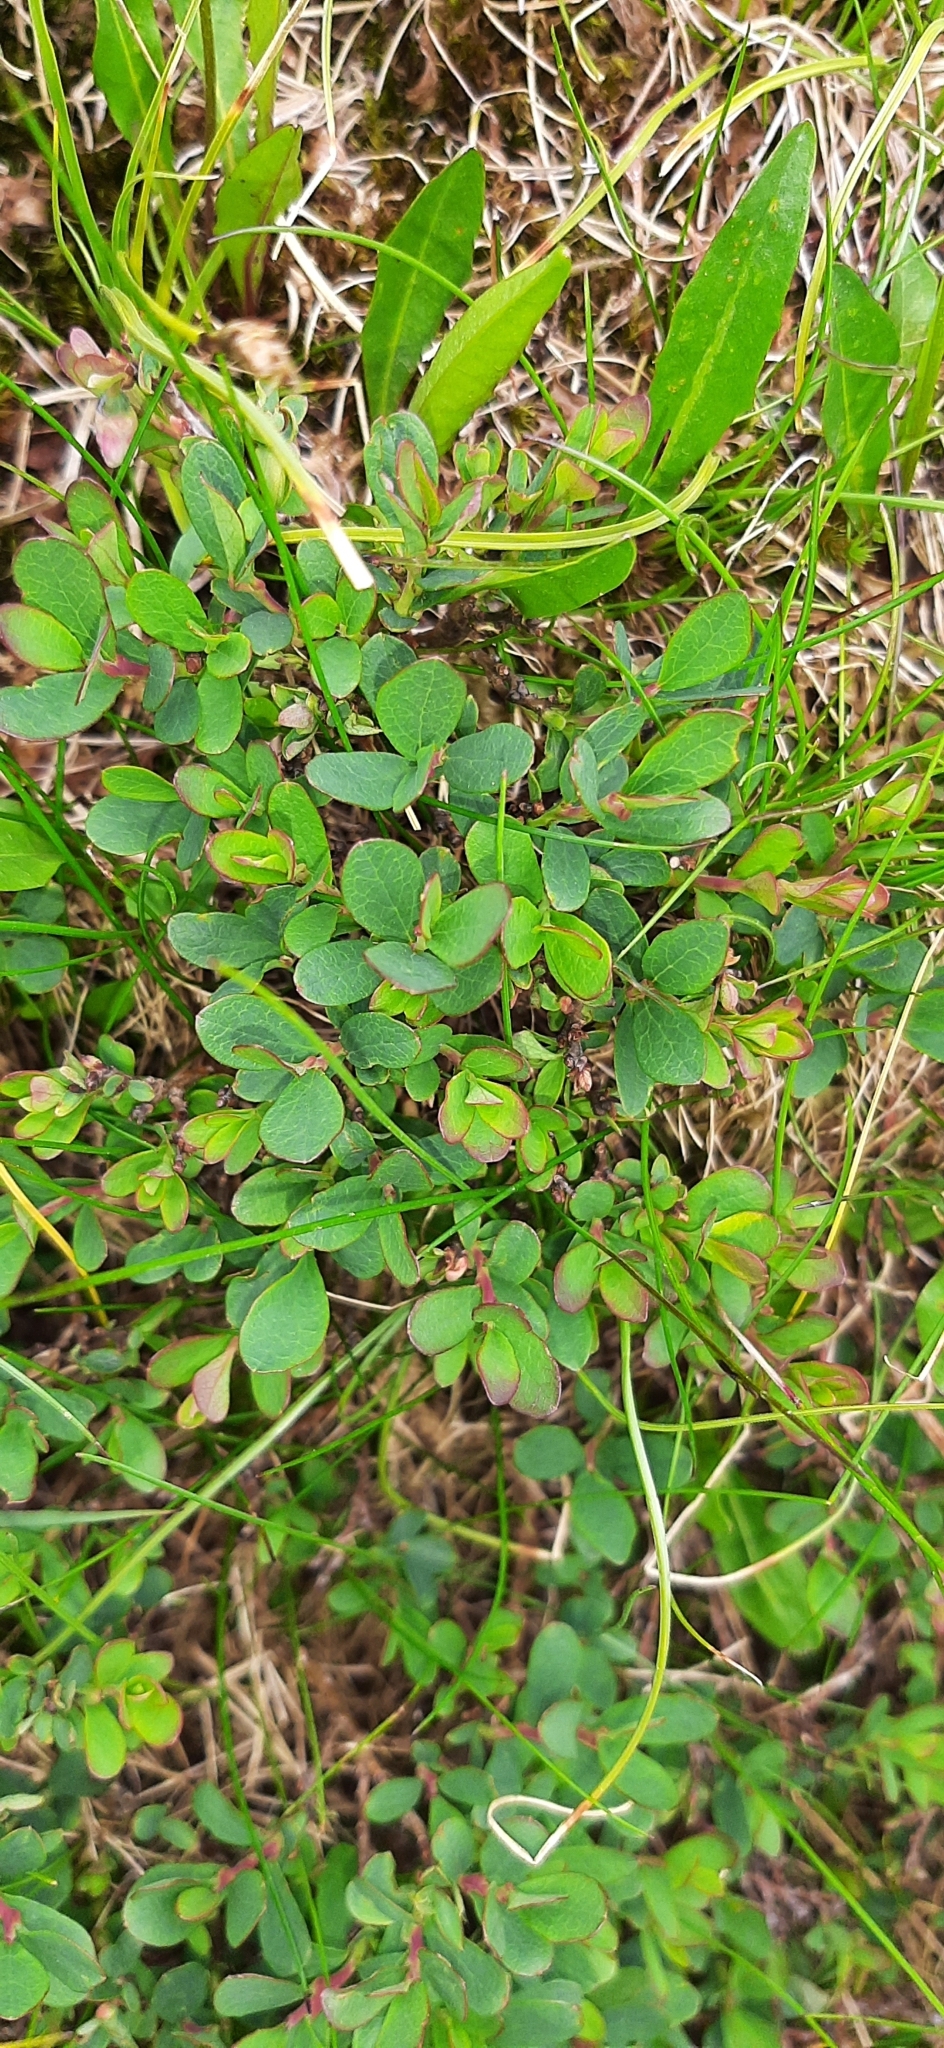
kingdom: Plantae
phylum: Tracheophyta
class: Magnoliopsida
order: Ericales
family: Ericaceae
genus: Vaccinium
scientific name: Vaccinium uliginosum
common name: Bog bilberry
